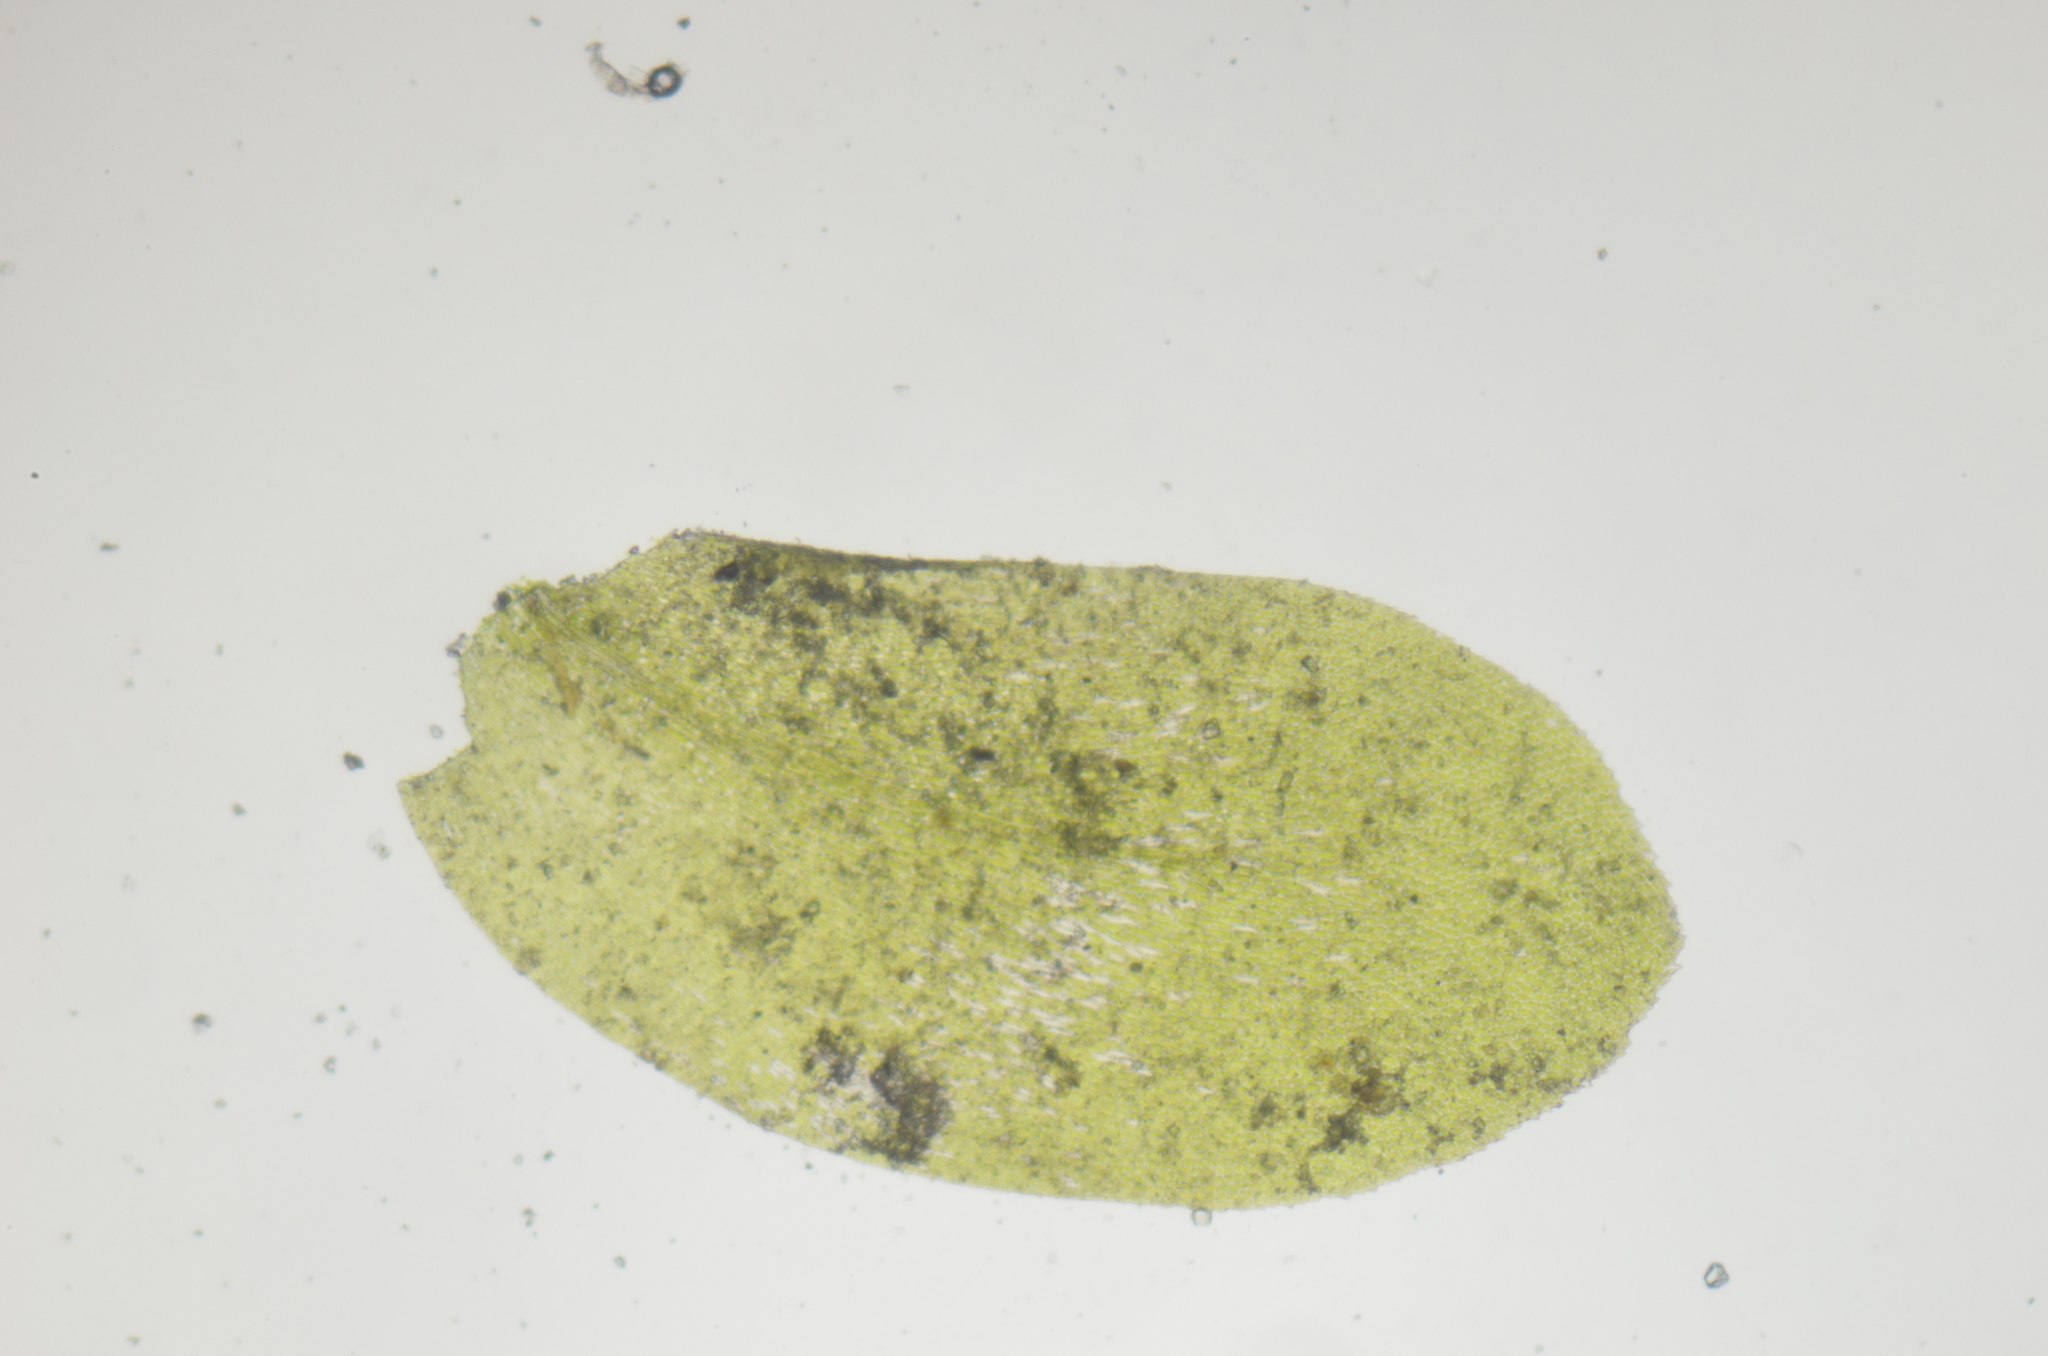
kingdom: Plantae
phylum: Bryophyta
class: Bryopsida
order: Hypnales
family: Neckeraceae
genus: Homalia
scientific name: Homalia trichomanoides
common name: Lime homalia moss
